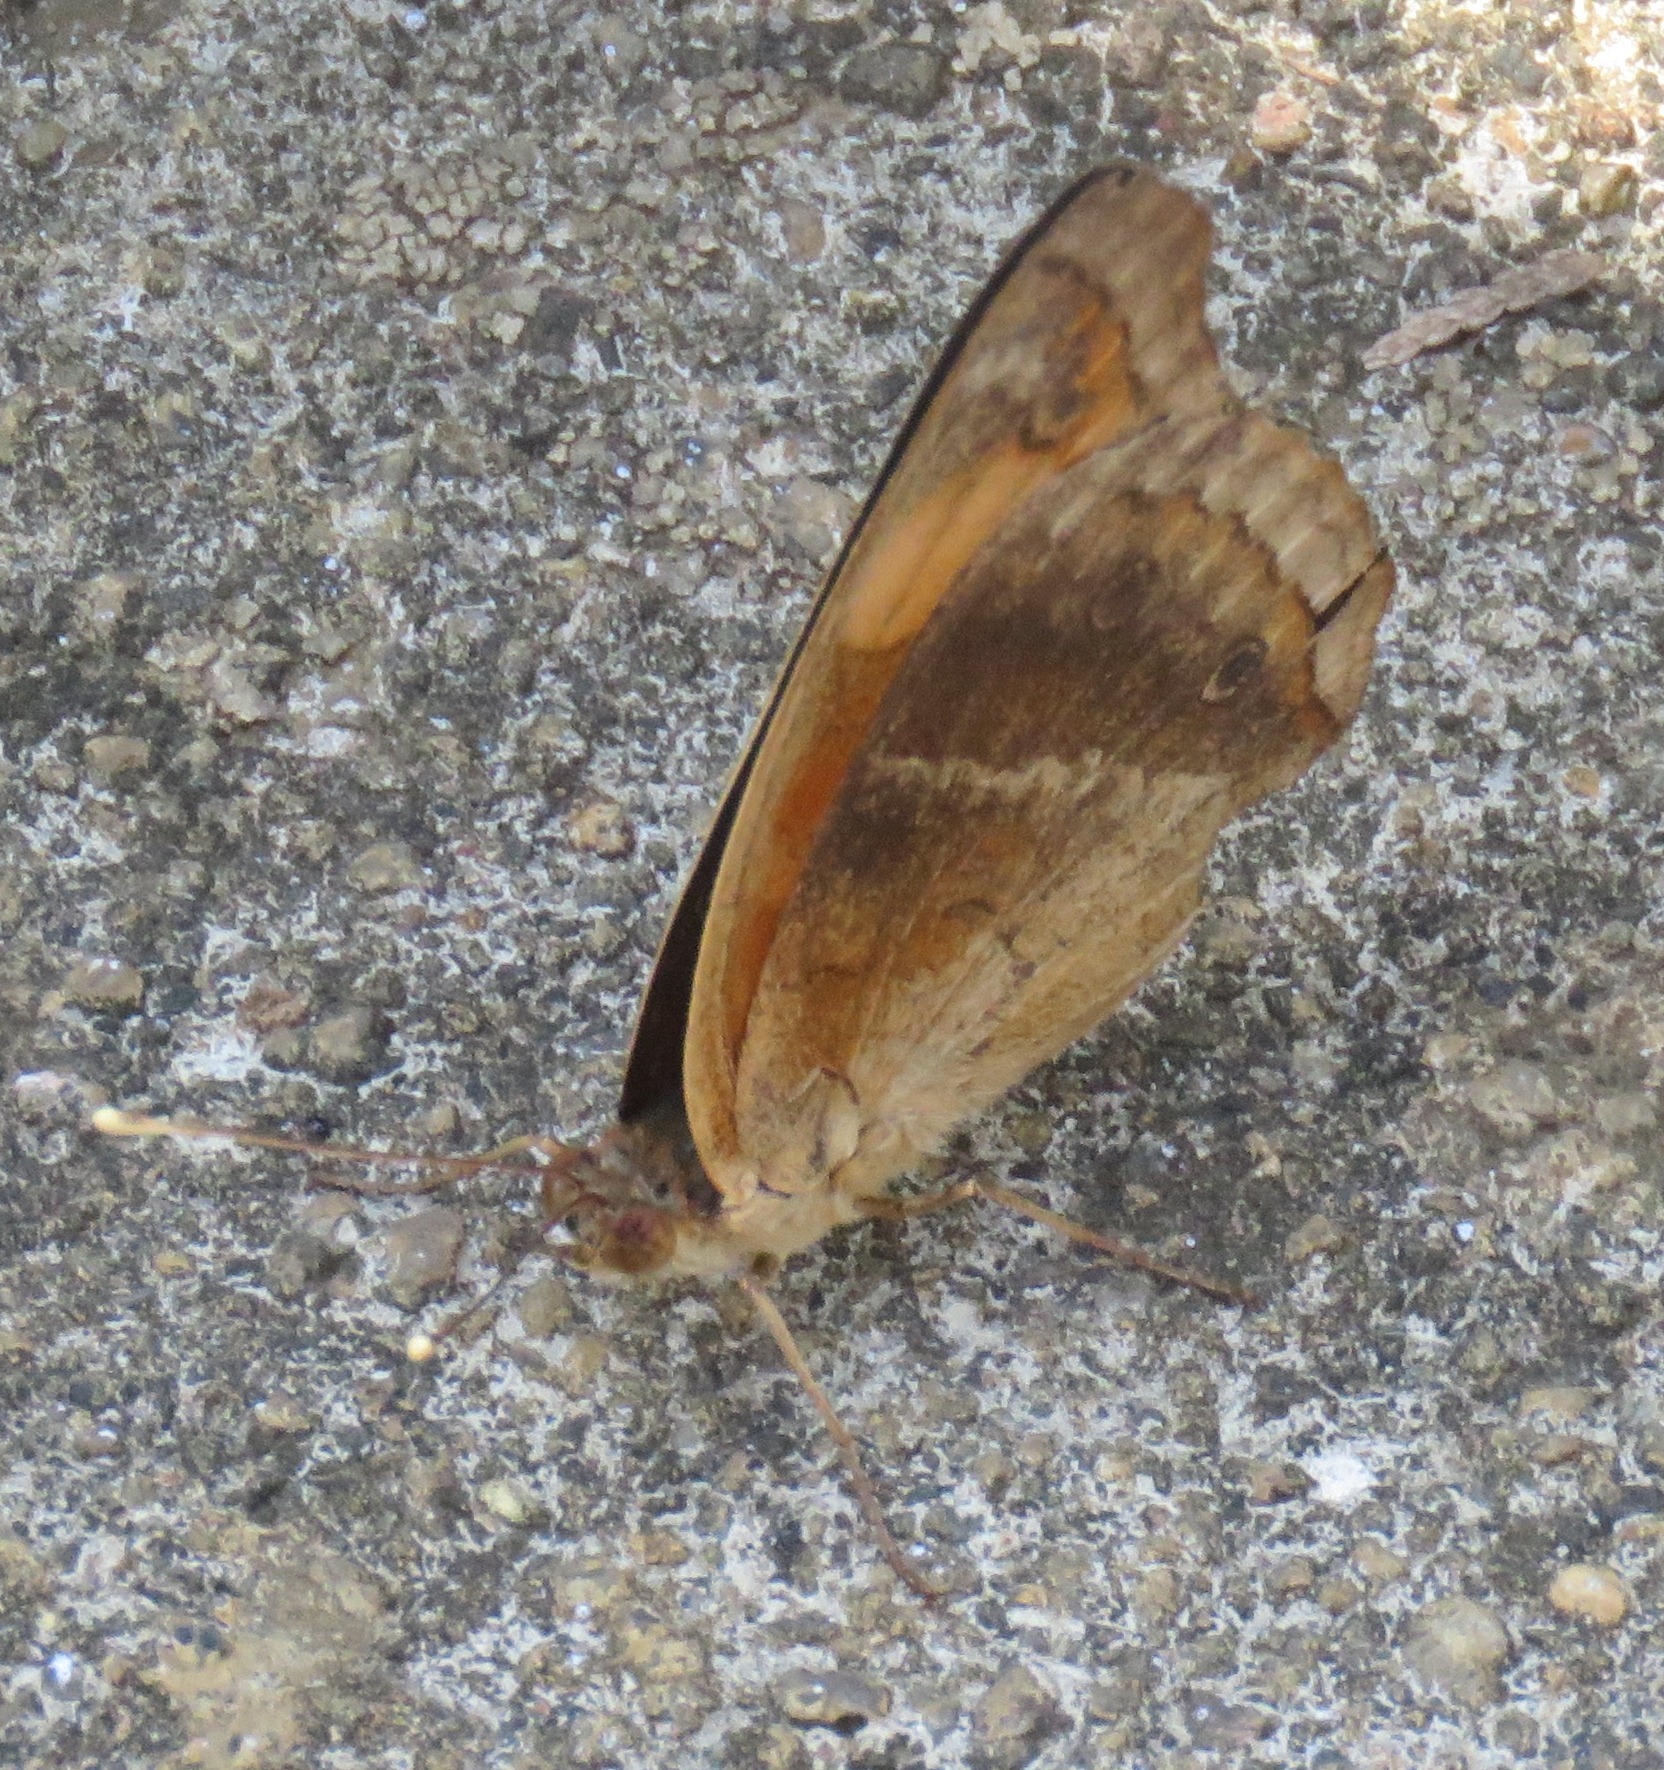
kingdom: Animalia
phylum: Arthropoda
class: Insecta
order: Lepidoptera
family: Nymphalidae
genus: Junonia
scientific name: Junonia lavinia
